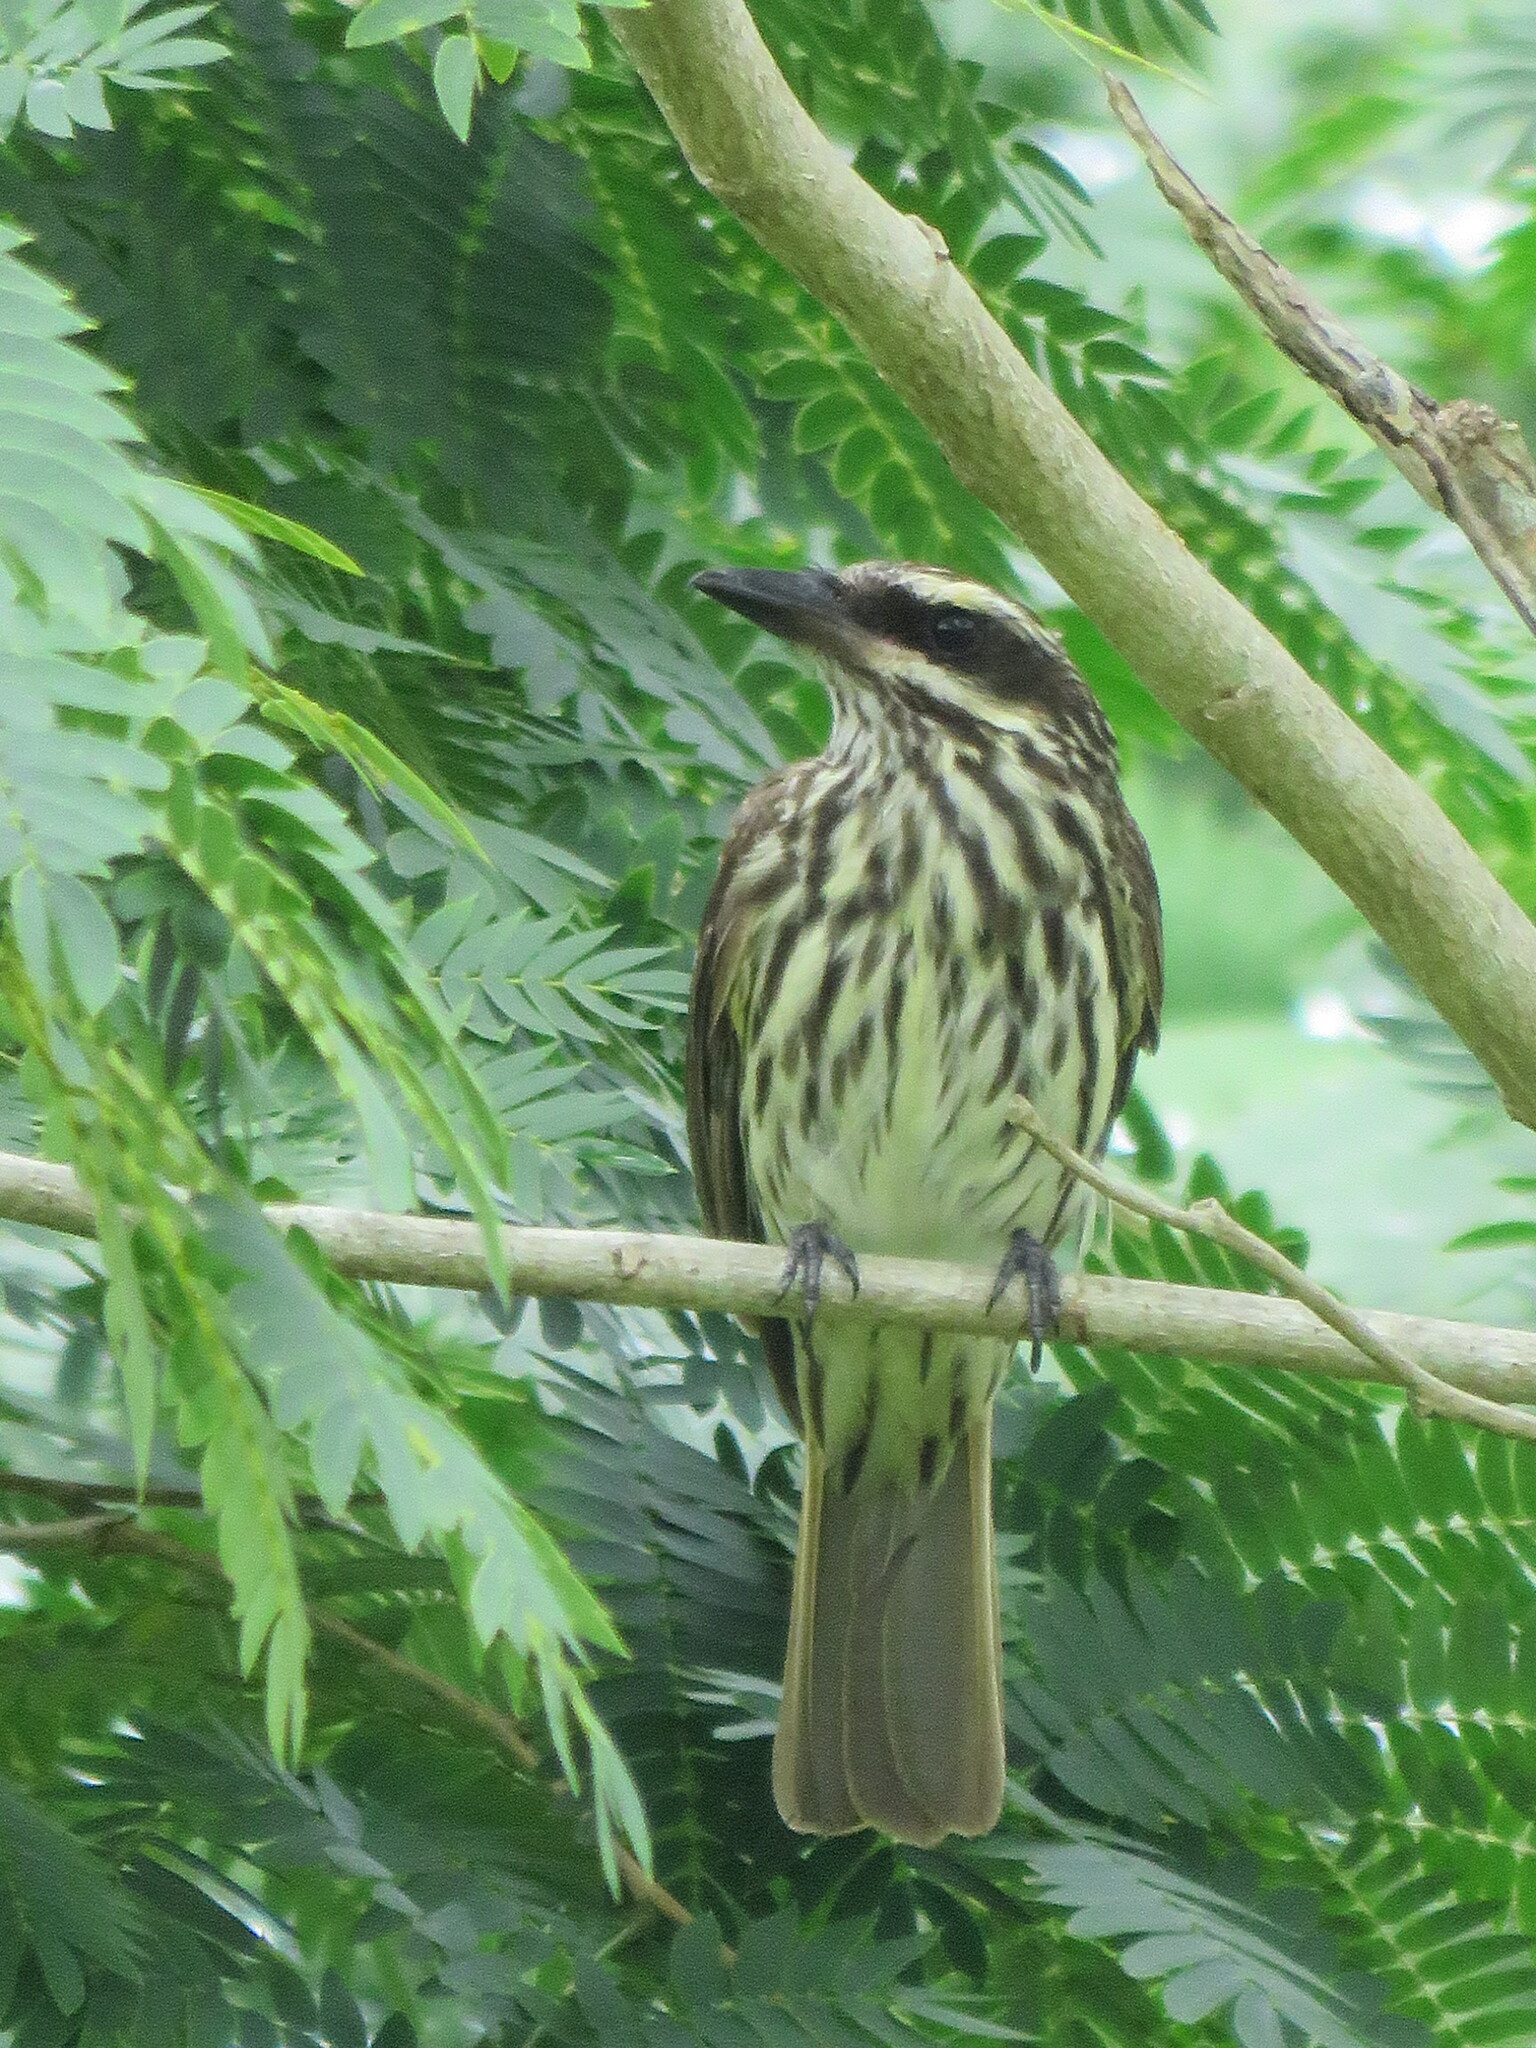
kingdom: Animalia
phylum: Chordata
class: Aves
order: Passeriformes
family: Tyrannidae
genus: Myiodynastes
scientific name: Myiodynastes maculatus
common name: Streaked flycatcher
